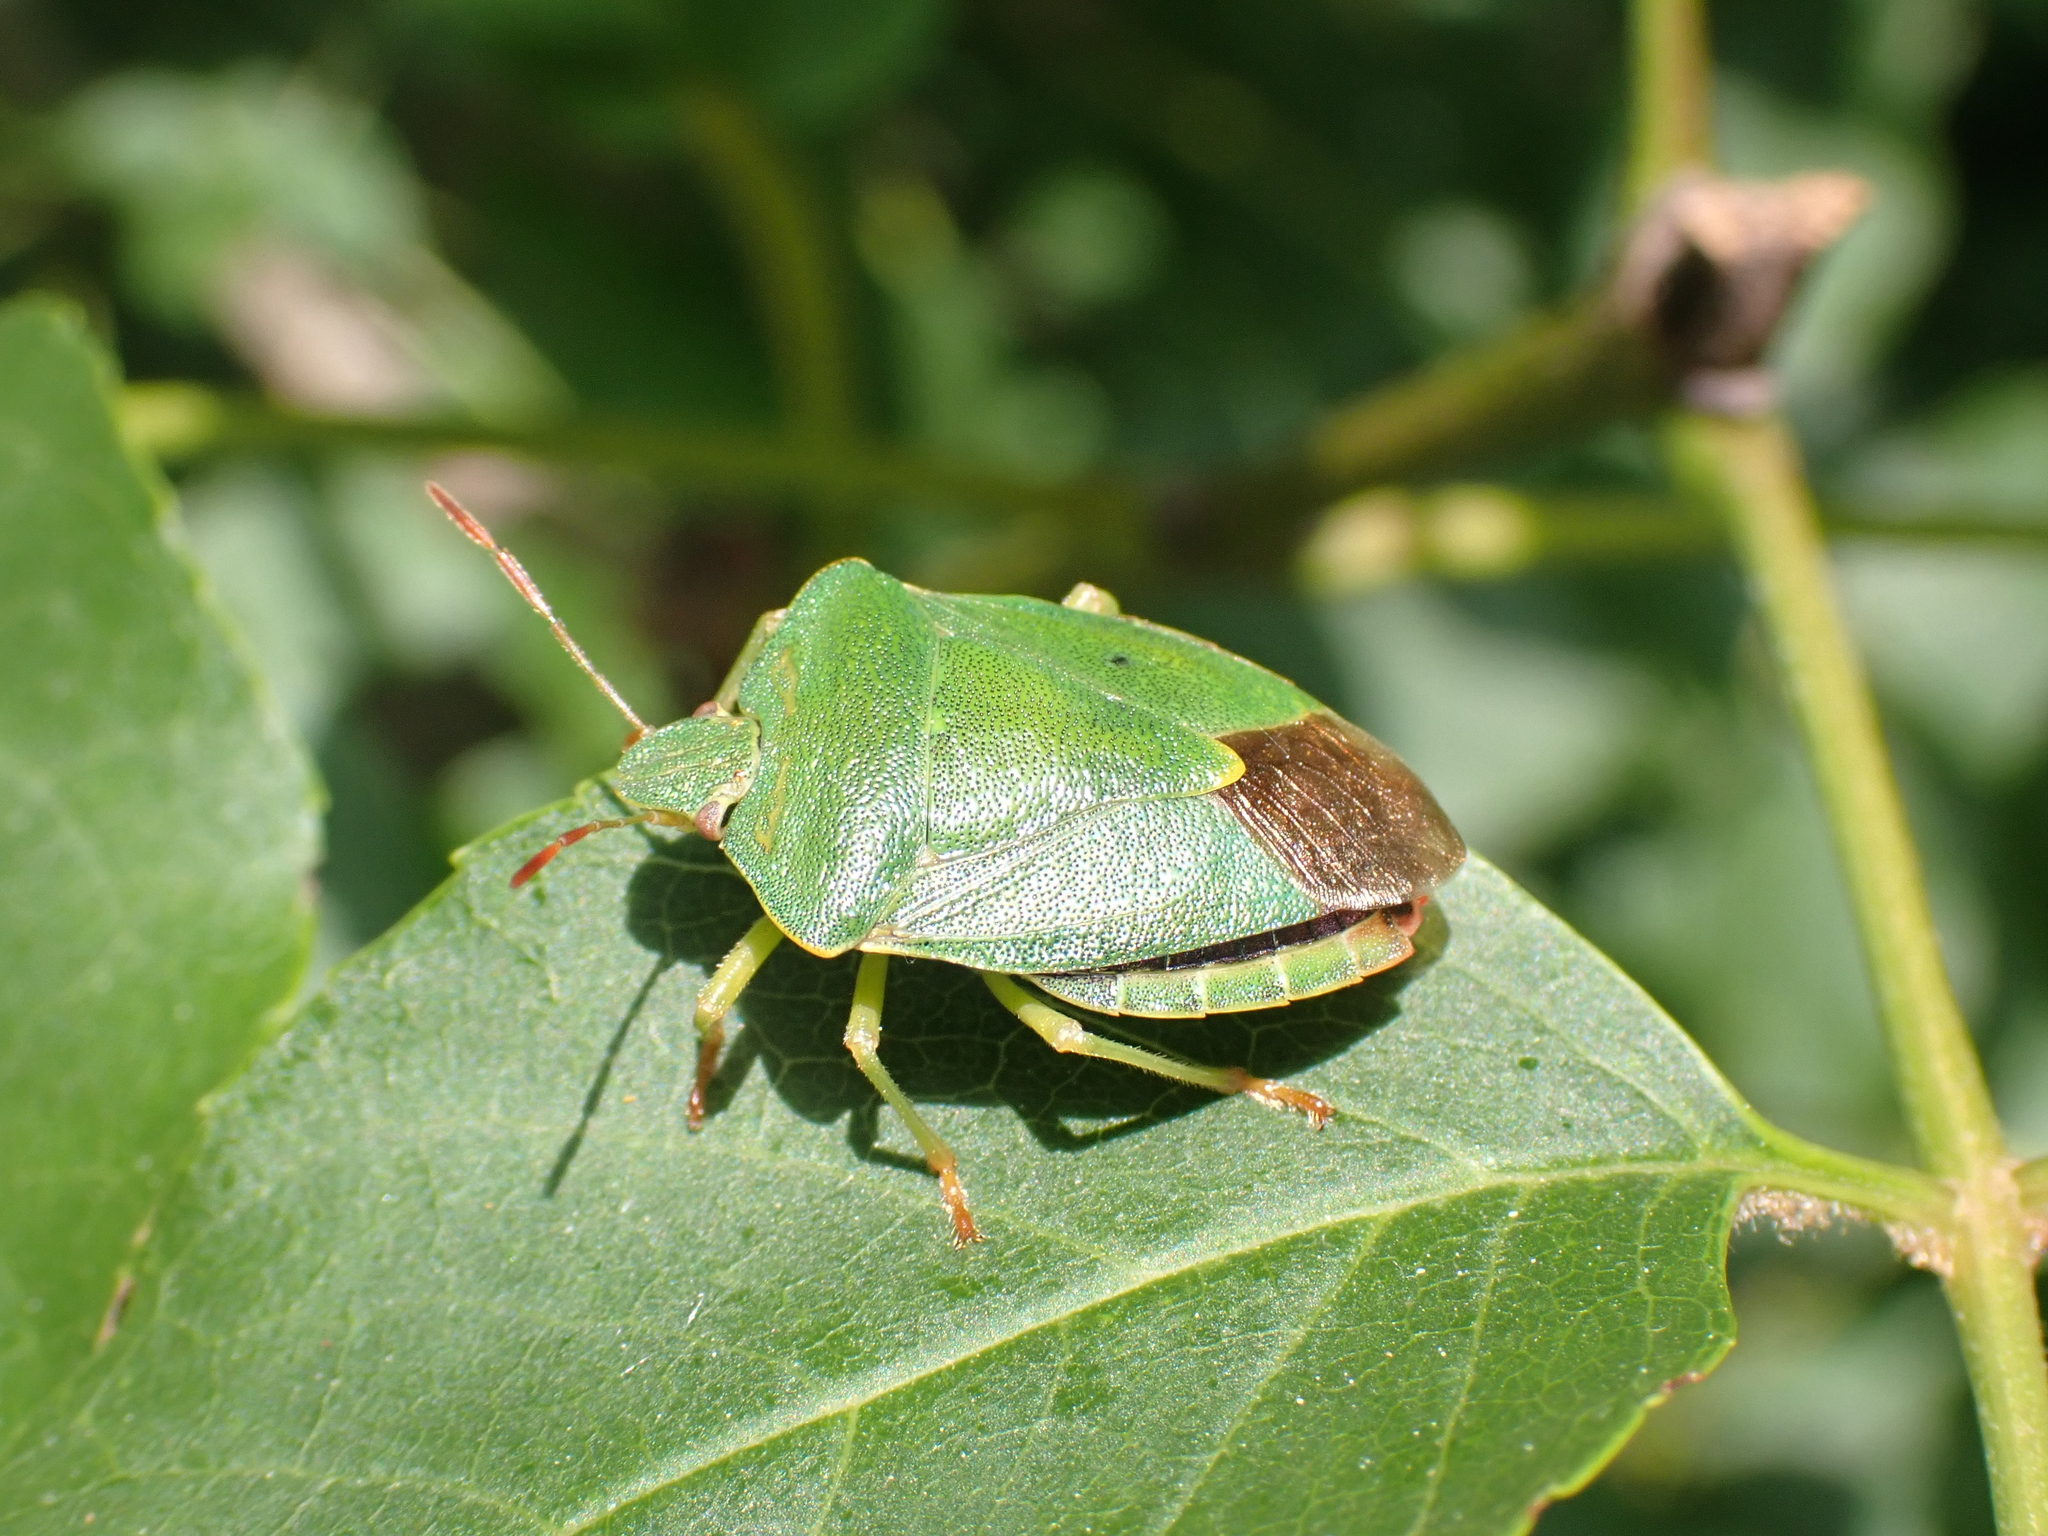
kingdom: Animalia
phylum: Arthropoda
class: Insecta
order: Hemiptera
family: Pentatomidae
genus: Palomena
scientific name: Palomena prasina
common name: Green shieldbug
